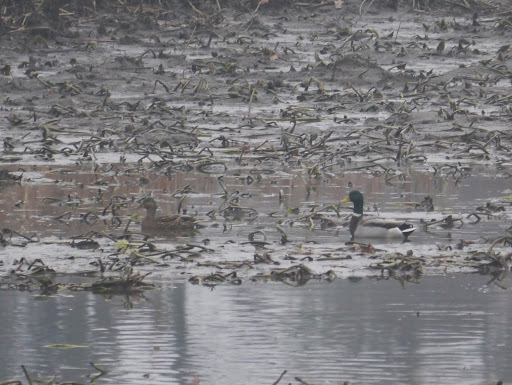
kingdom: Animalia
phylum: Chordata
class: Aves
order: Anseriformes
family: Anatidae
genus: Anas
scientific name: Anas platyrhynchos
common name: Mallard
